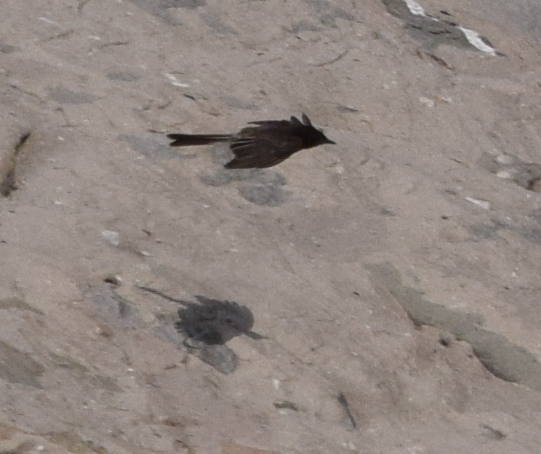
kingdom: Animalia
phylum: Chordata
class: Aves
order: Passeriformes
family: Tyrannidae
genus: Sayornis
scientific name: Sayornis nigricans
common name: Black phoebe
